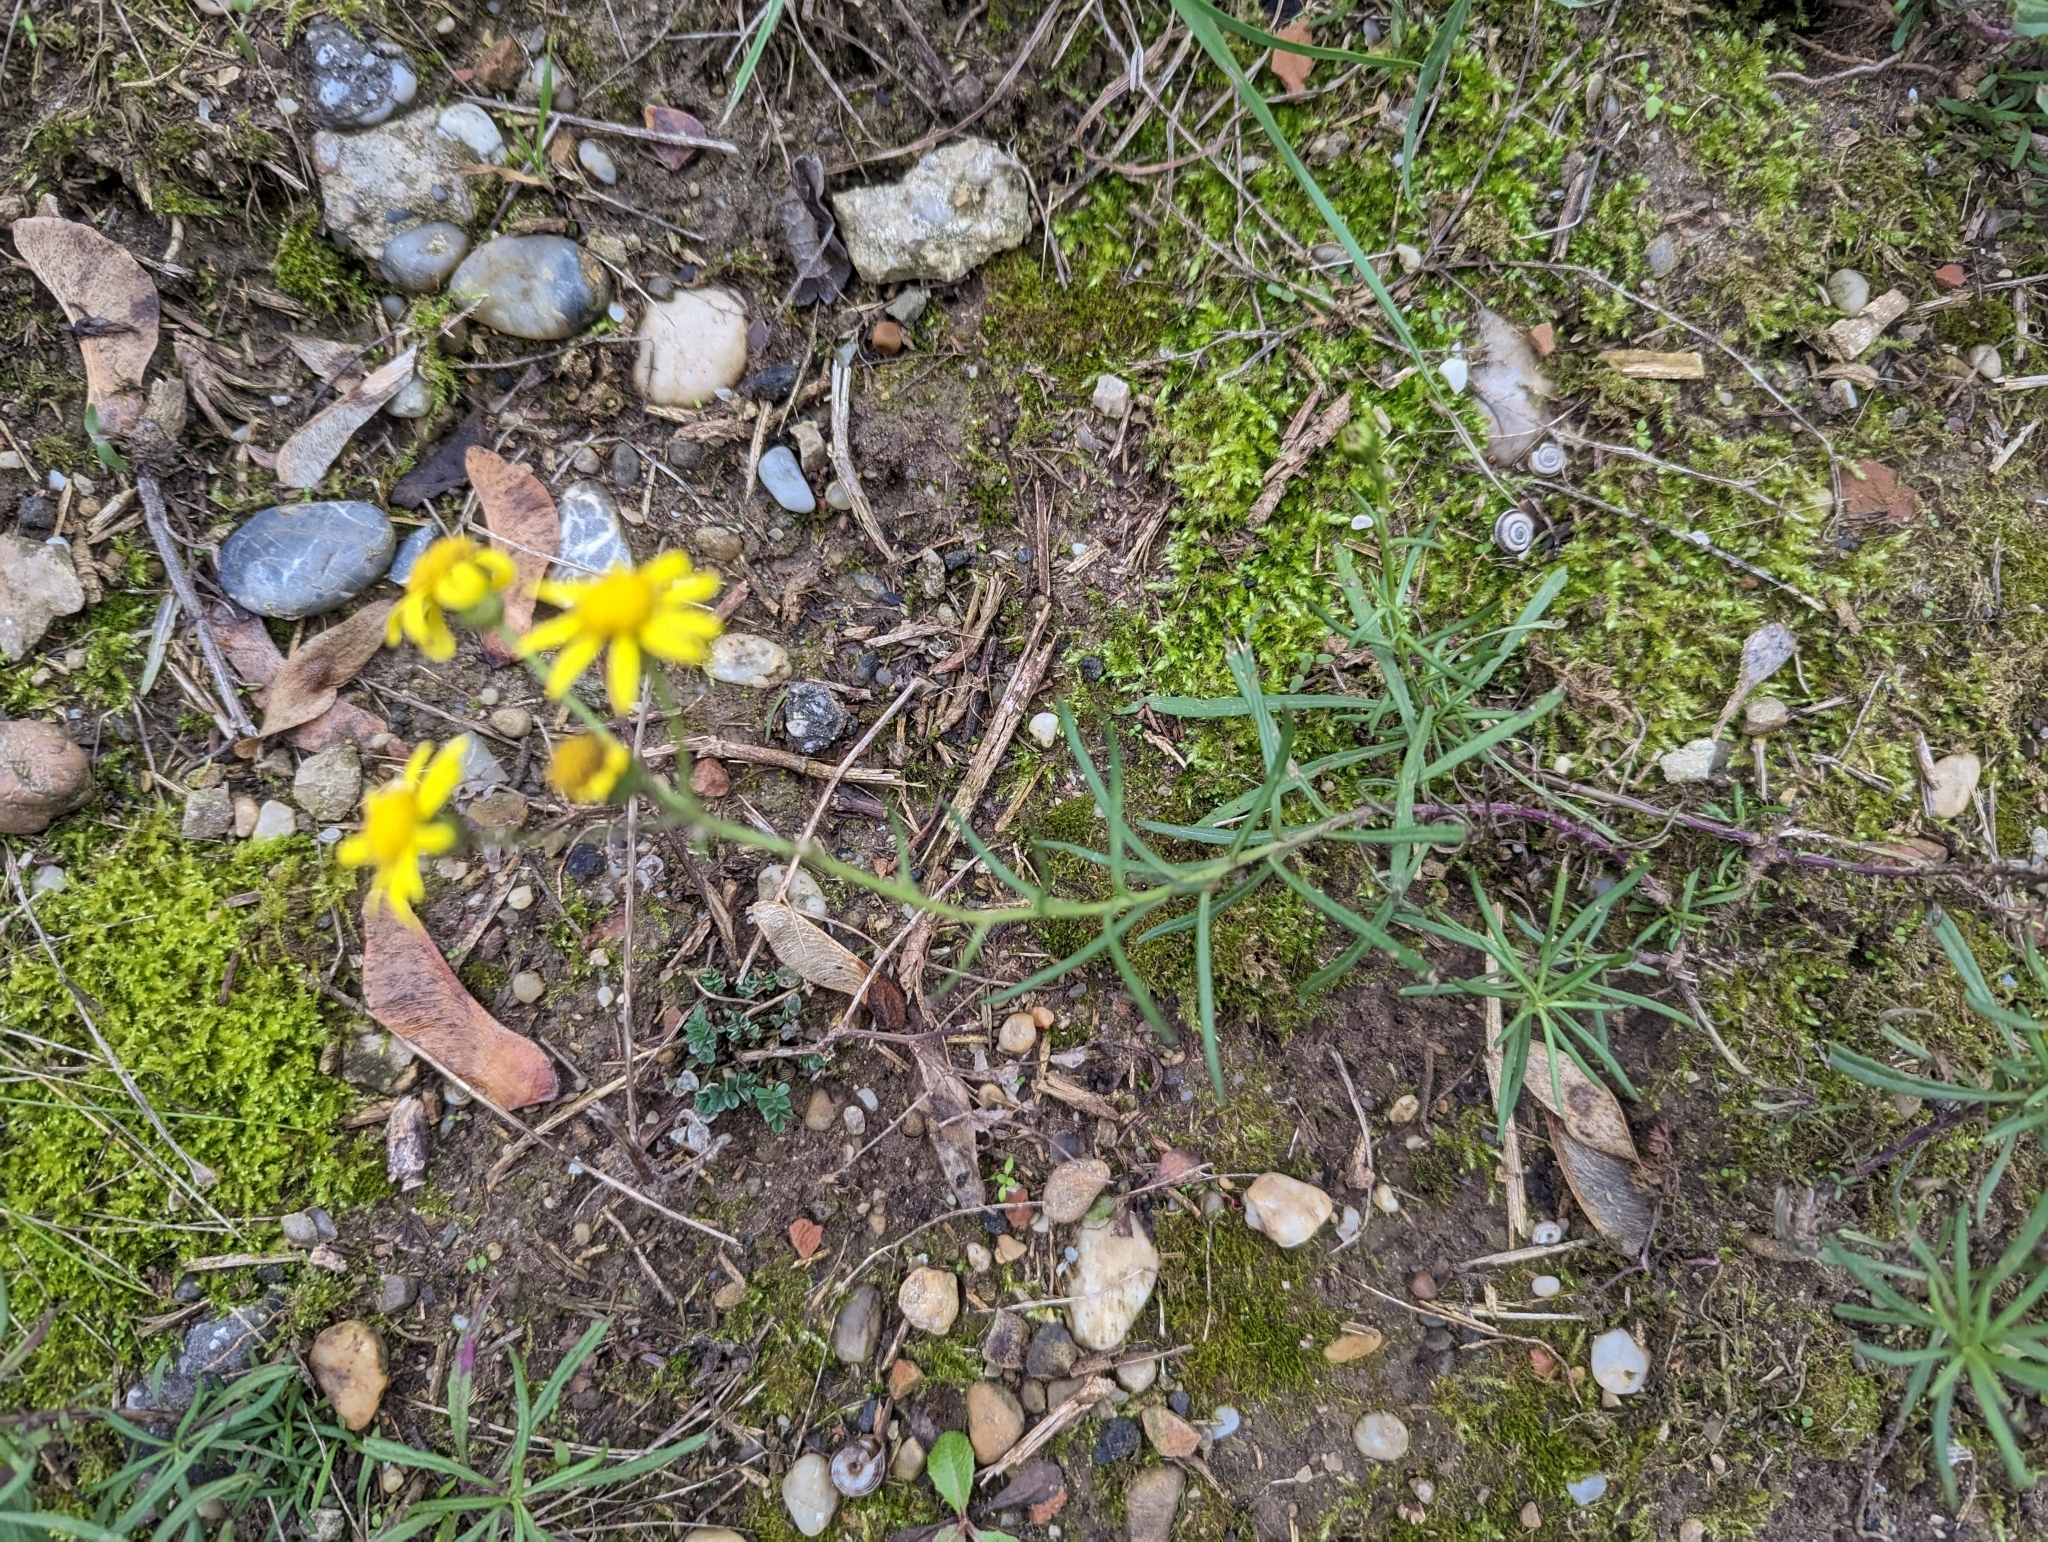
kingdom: Plantae
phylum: Tracheophyta
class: Magnoliopsida
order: Asterales
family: Asteraceae
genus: Senecio
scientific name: Senecio inaequidens
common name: Narrow-leaved ragwort
